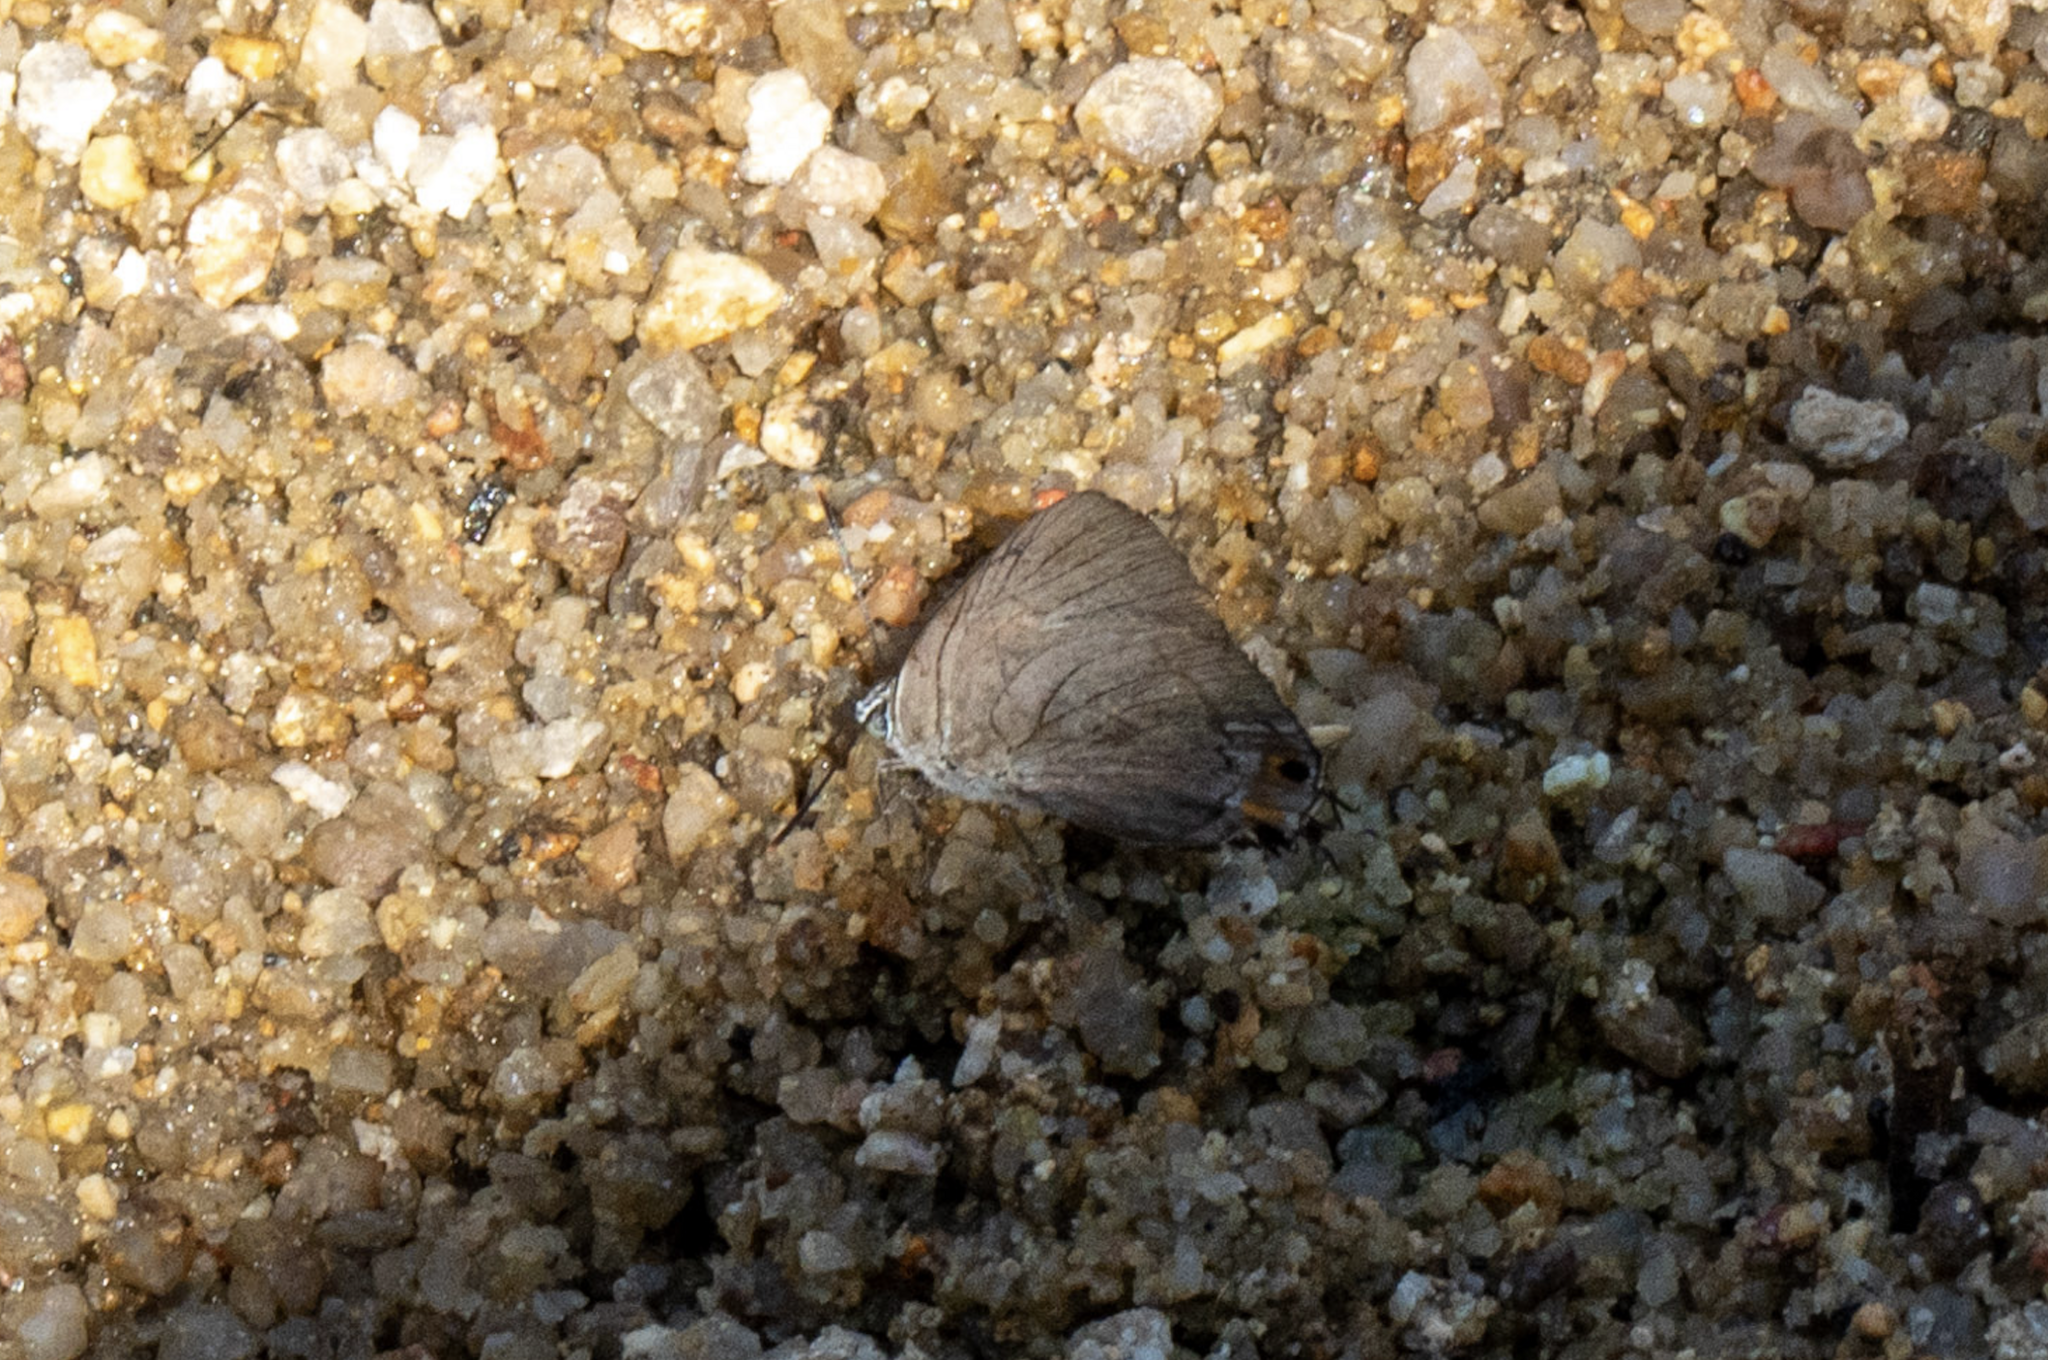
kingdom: Animalia
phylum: Arthropoda
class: Insecta
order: Lepidoptera
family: Lycaenidae
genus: Ancema
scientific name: Ancema blanka
